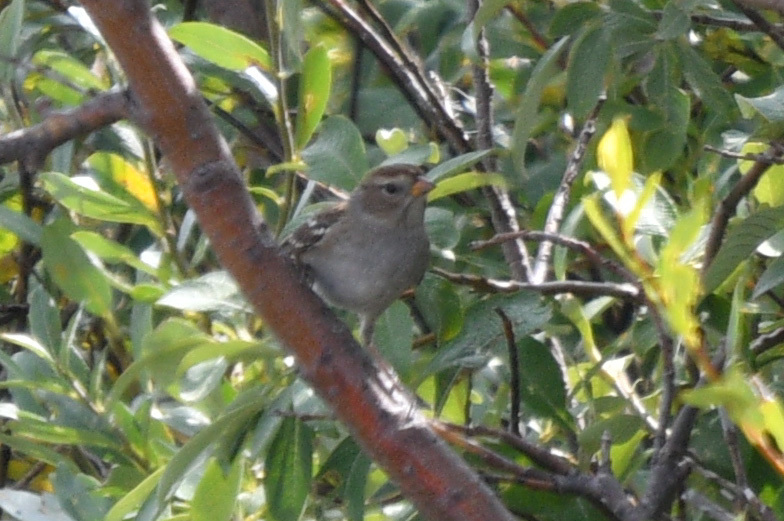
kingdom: Animalia
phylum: Chordata
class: Aves
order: Passeriformes
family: Passerellidae
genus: Zonotrichia
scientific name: Zonotrichia leucophrys
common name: White-crowned sparrow
